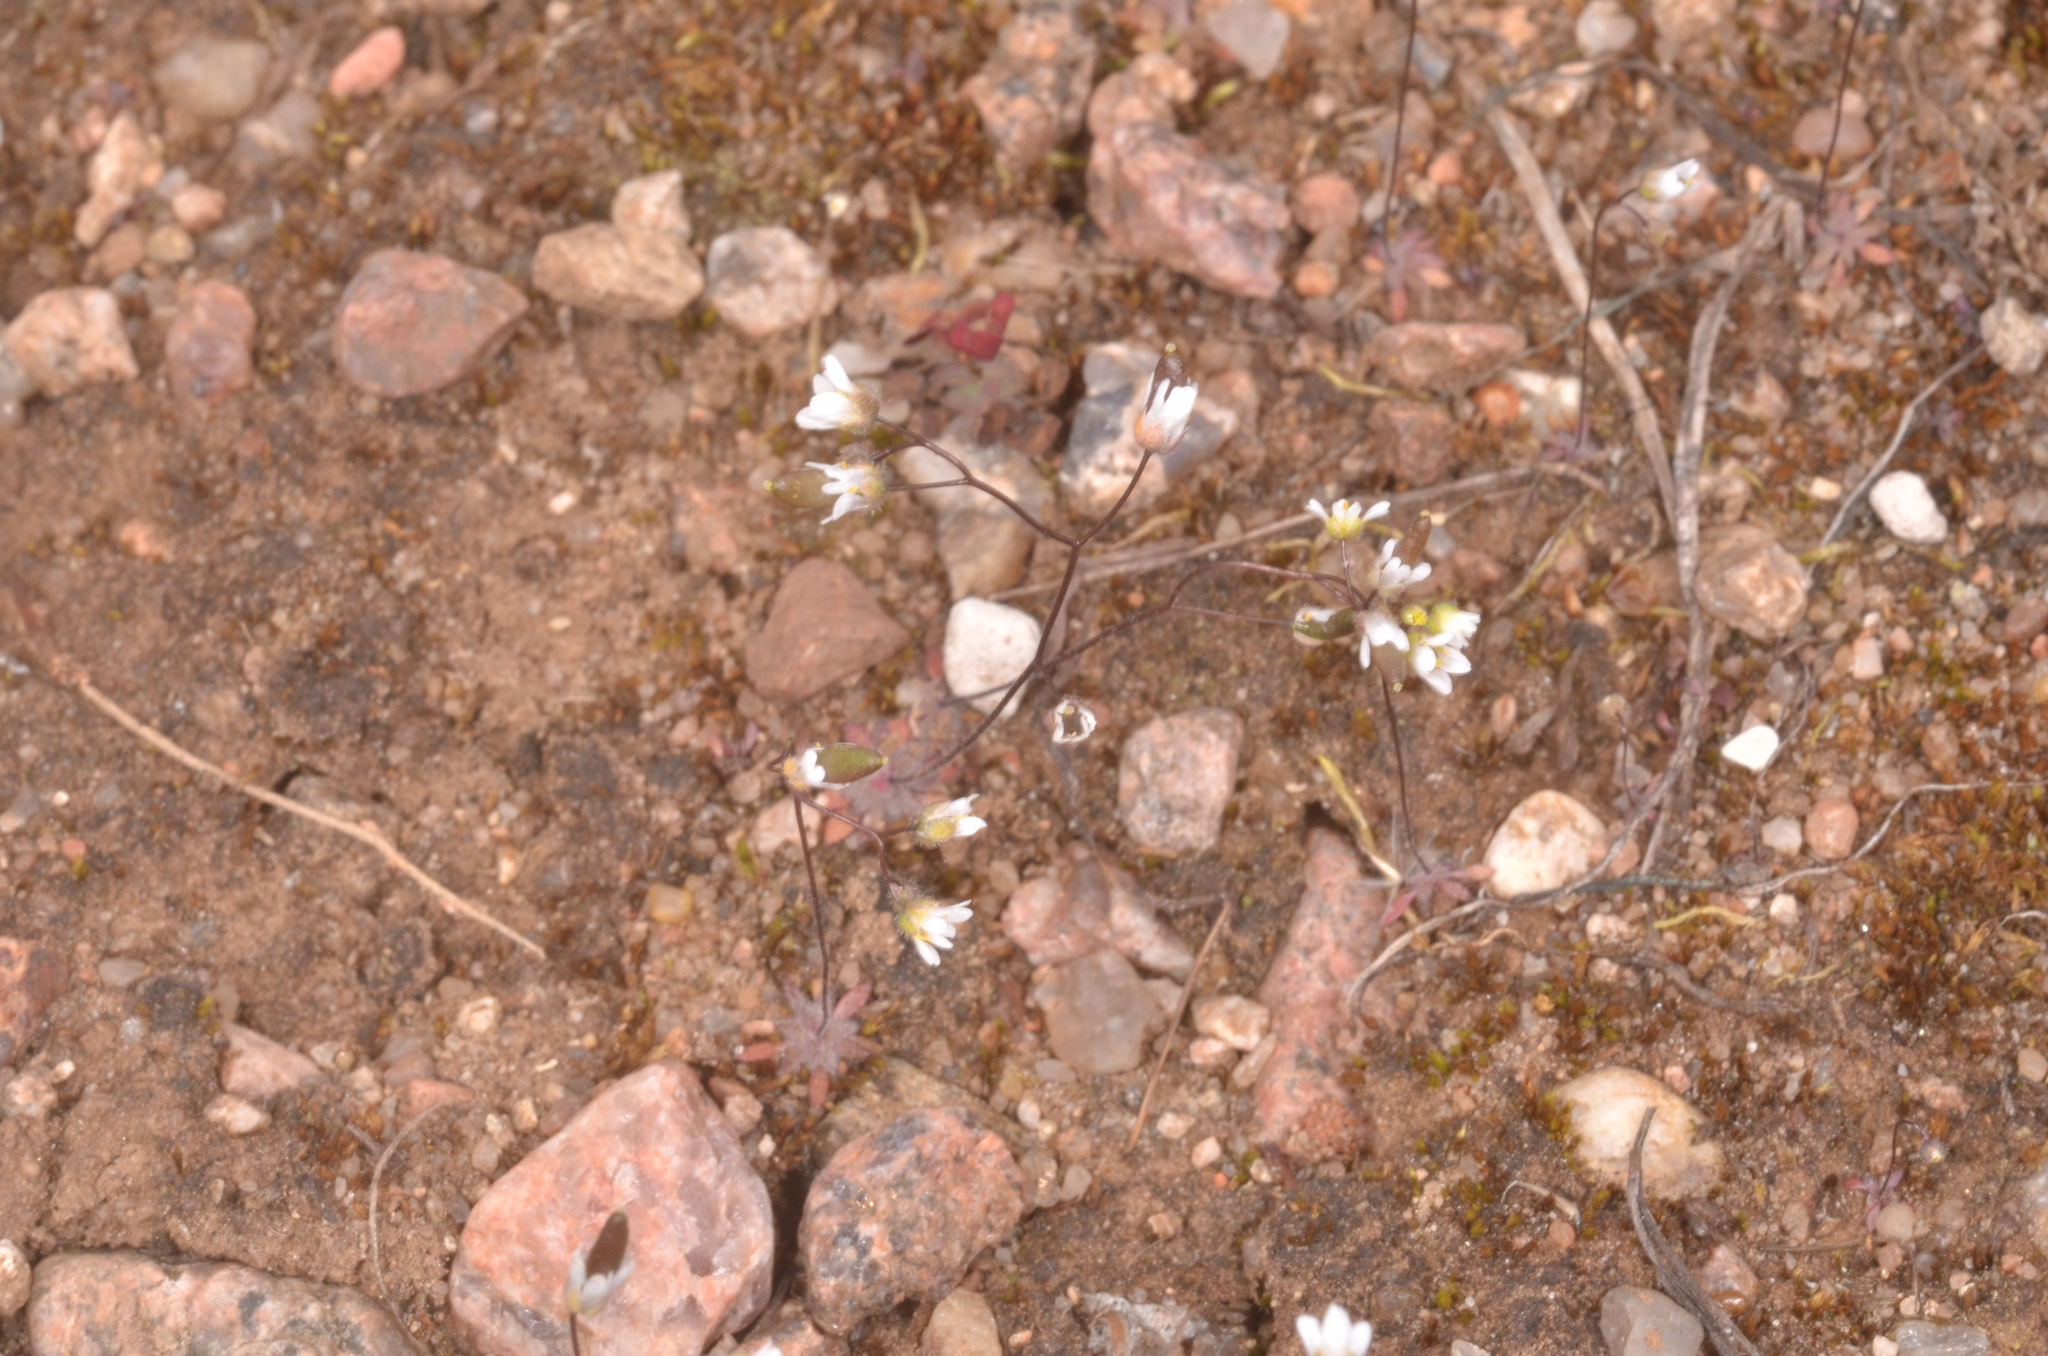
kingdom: Plantae
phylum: Tracheophyta
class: Magnoliopsida
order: Brassicales
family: Brassicaceae
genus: Draba
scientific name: Draba verna
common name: Spring draba
